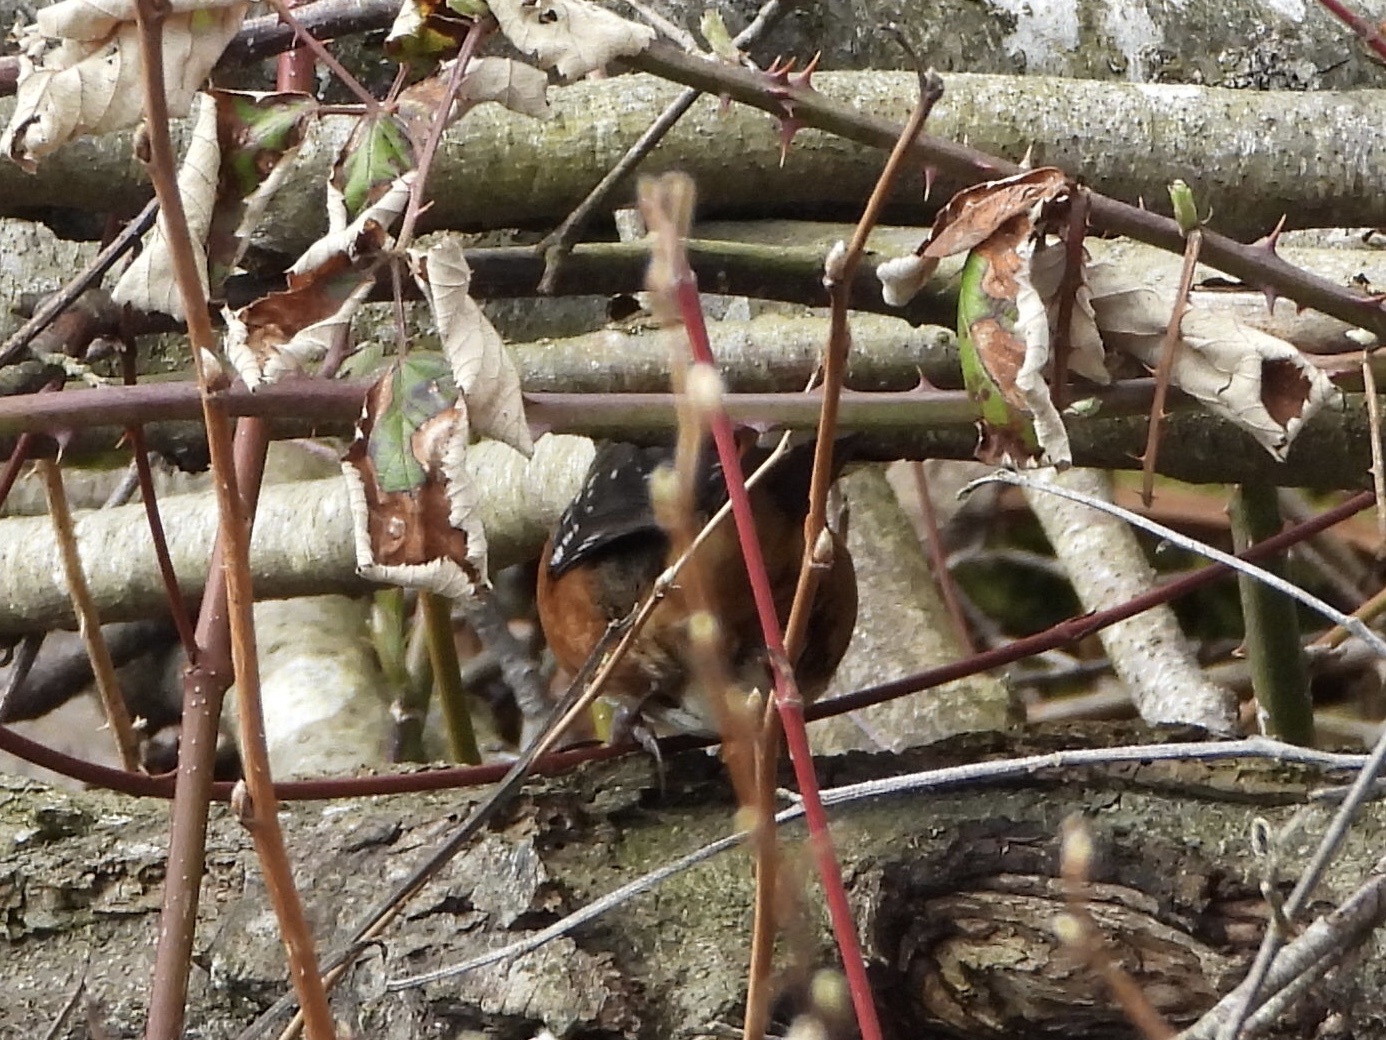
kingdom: Animalia
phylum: Chordata
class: Aves
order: Passeriformes
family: Passerellidae
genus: Pipilo
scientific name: Pipilo maculatus
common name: Spotted towhee
